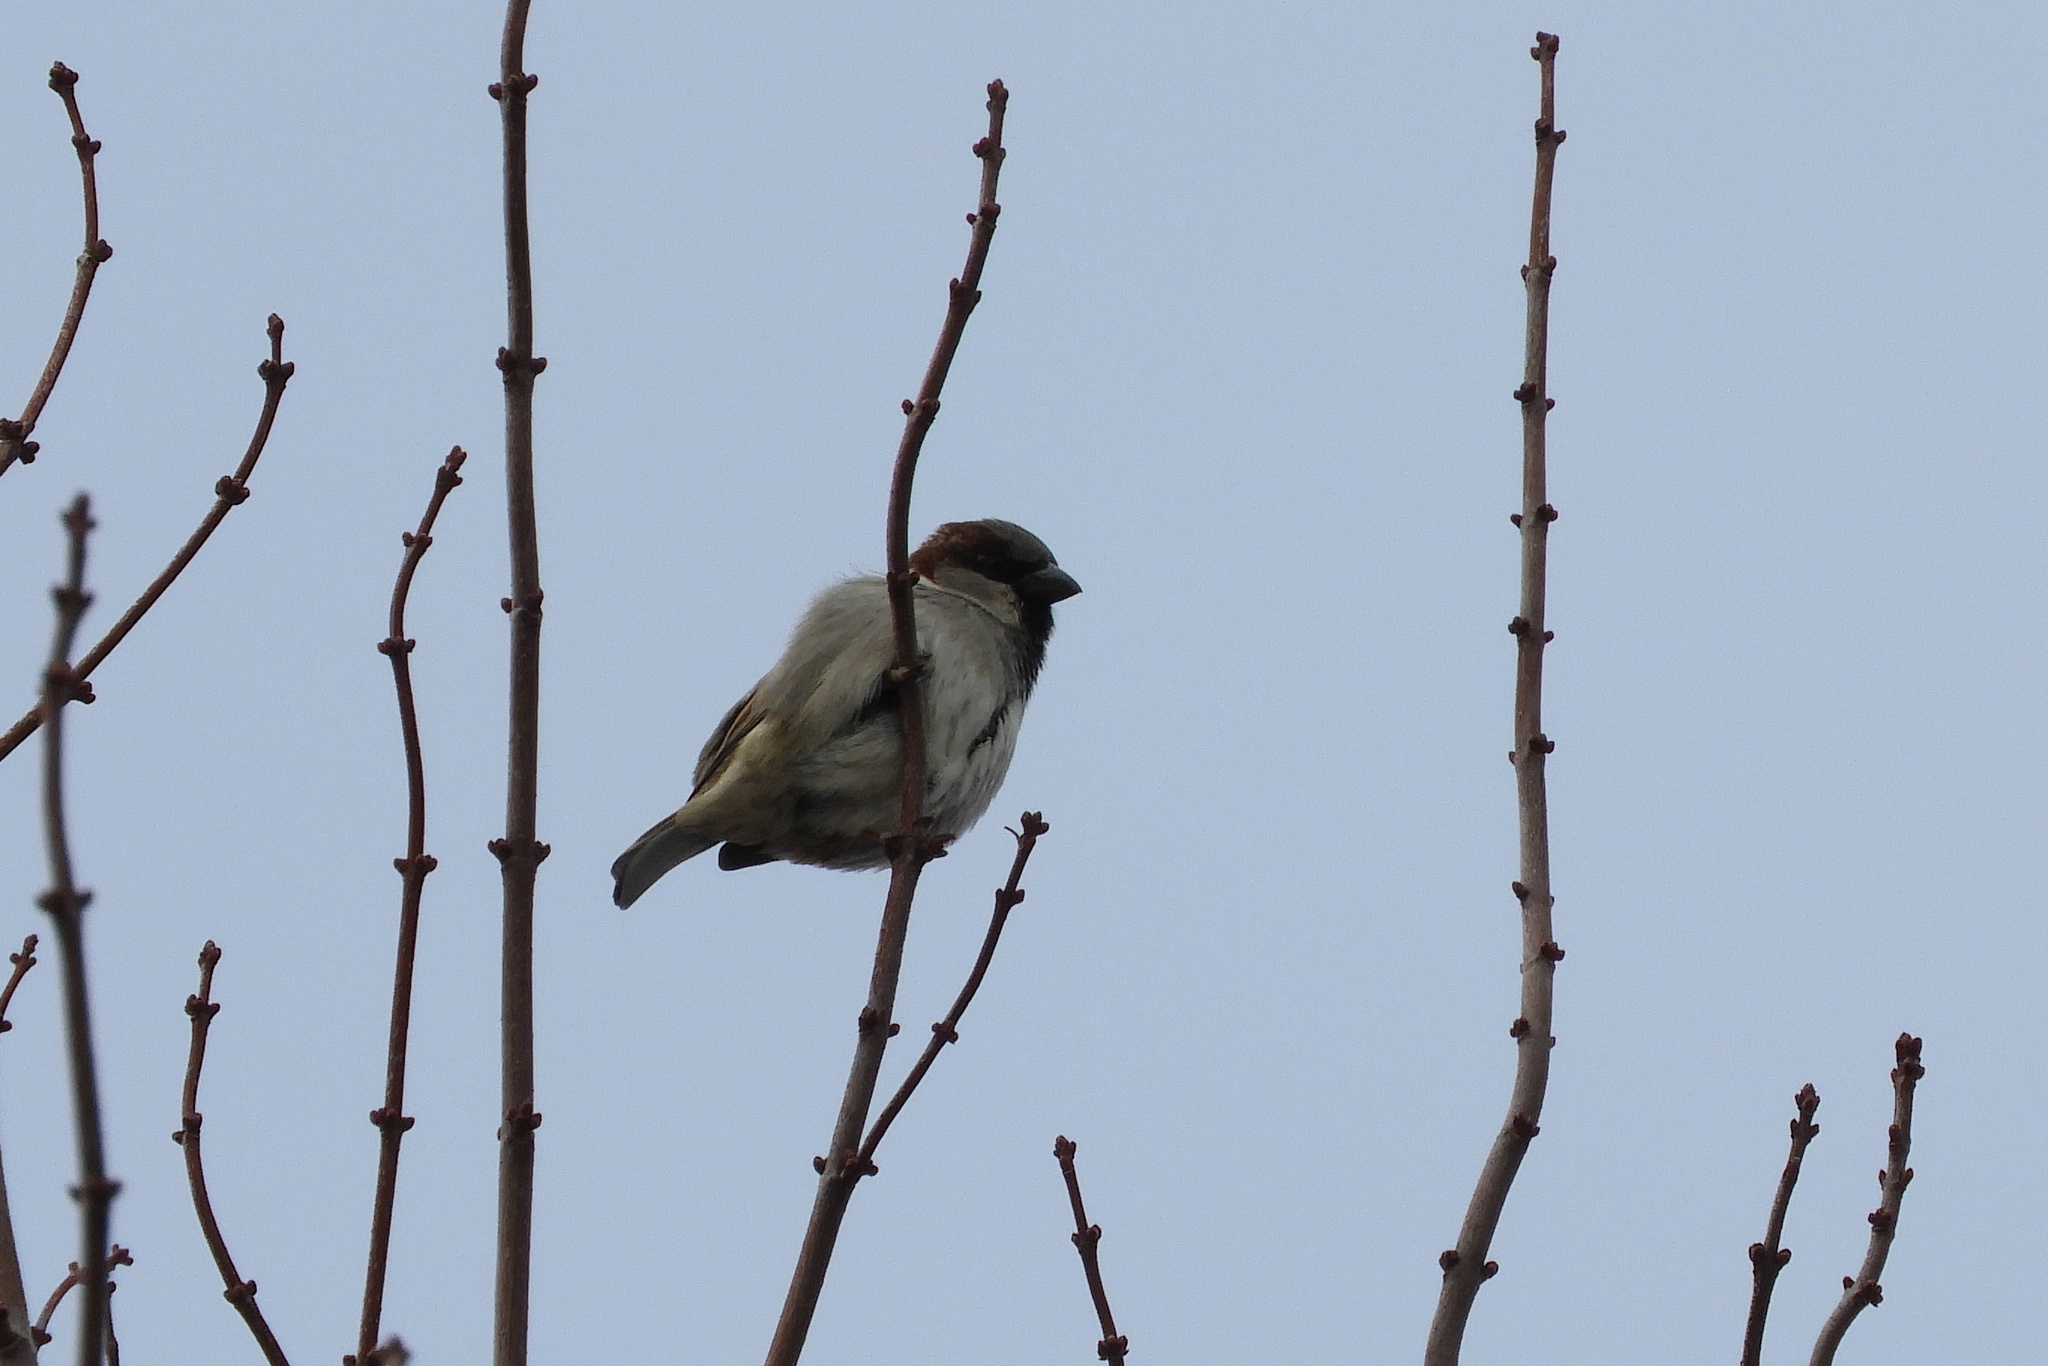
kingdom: Animalia
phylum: Chordata
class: Aves
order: Passeriformes
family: Passeridae
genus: Passer
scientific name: Passer domesticus
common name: House sparrow
